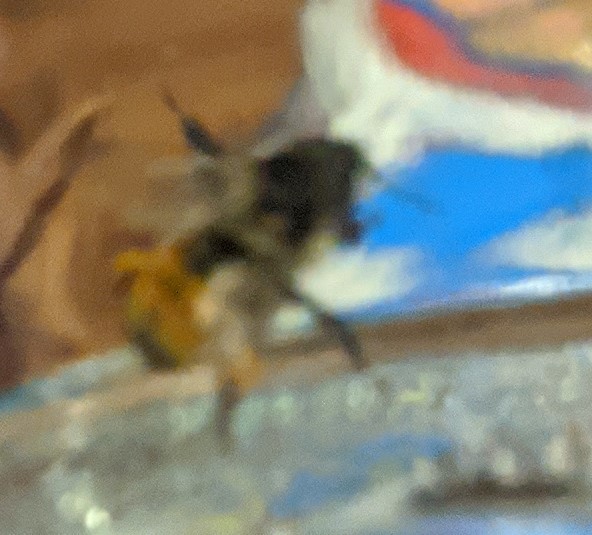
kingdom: Animalia
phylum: Arthropoda
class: Insecta
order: Hymenoptera
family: Apidae
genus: Bombus
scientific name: Bombus ternarius
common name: Tri-colored bumble bee
